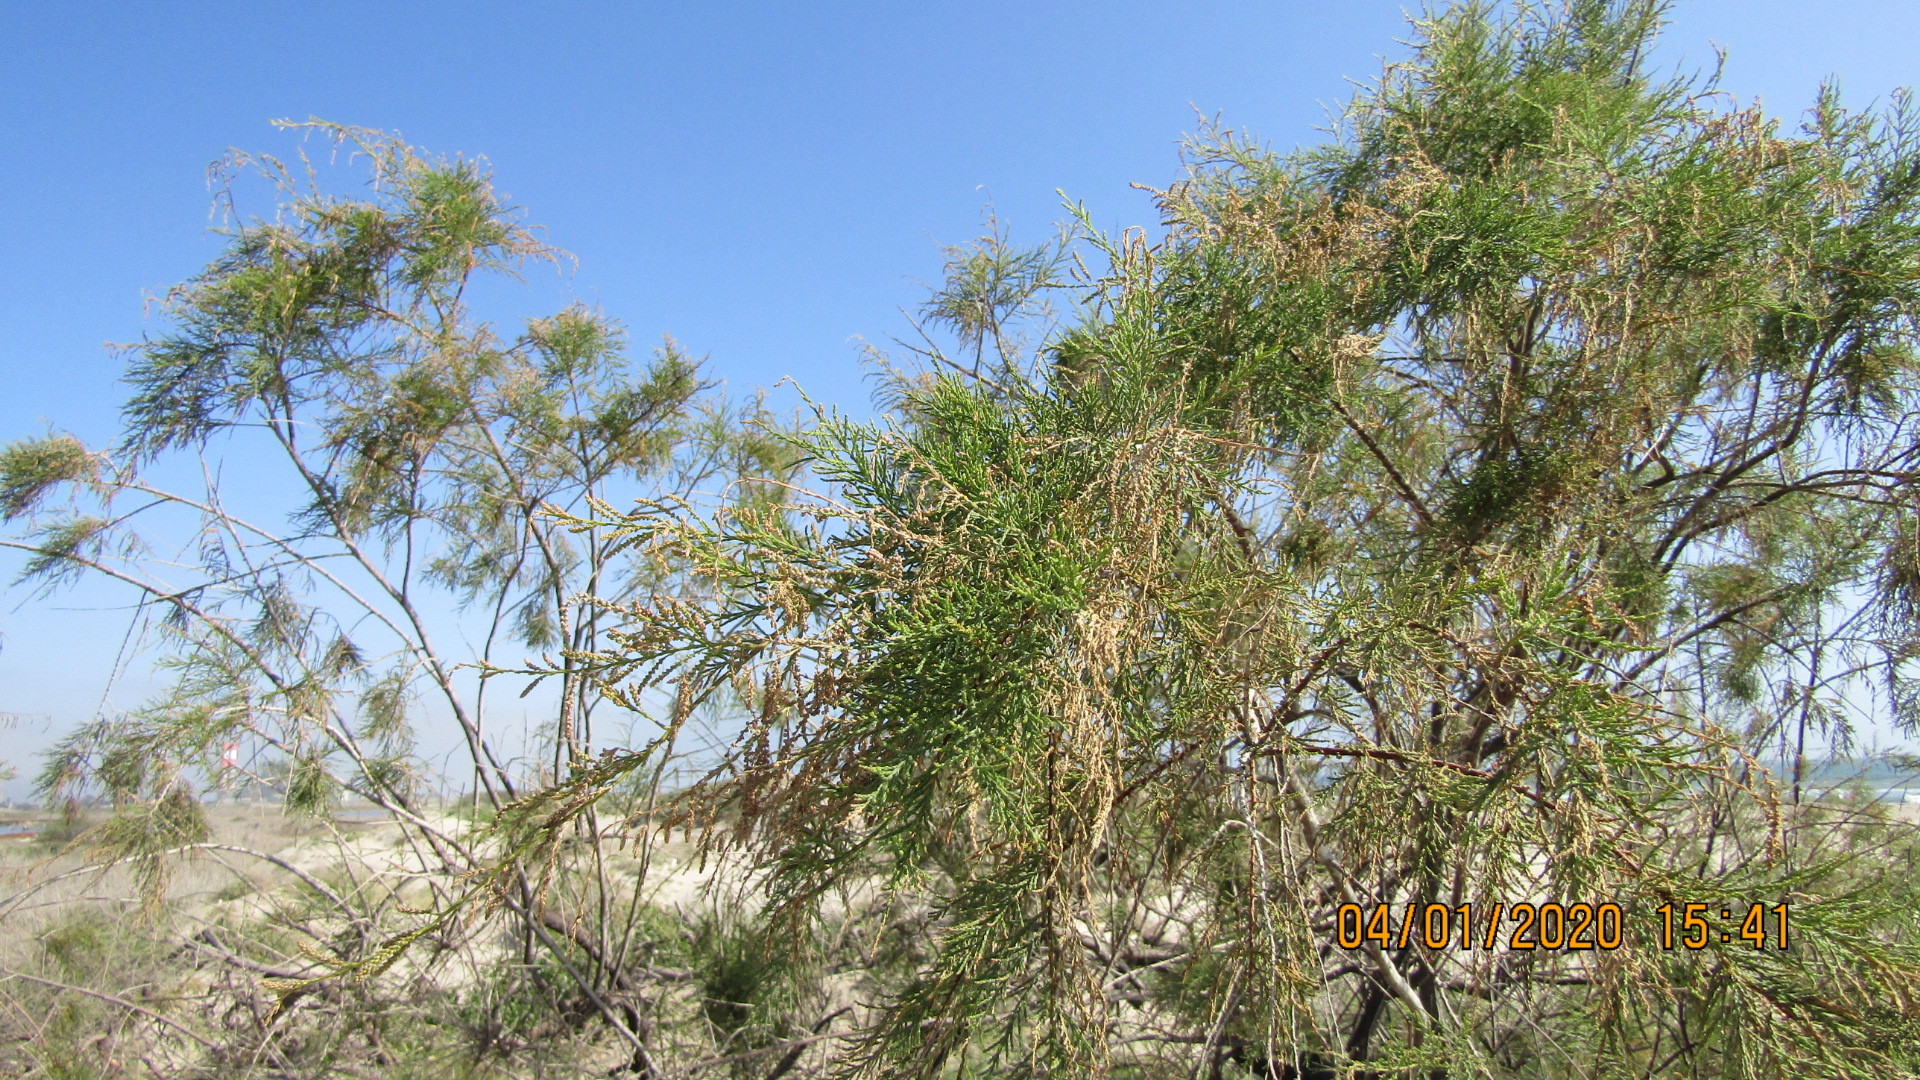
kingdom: Plantae
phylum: Tracheophyta
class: Magnoliopsida
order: Caryophyllales
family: Tamaricaceae
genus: Tamarix
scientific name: Tamarix ramosissima
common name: Pink tamarisk
